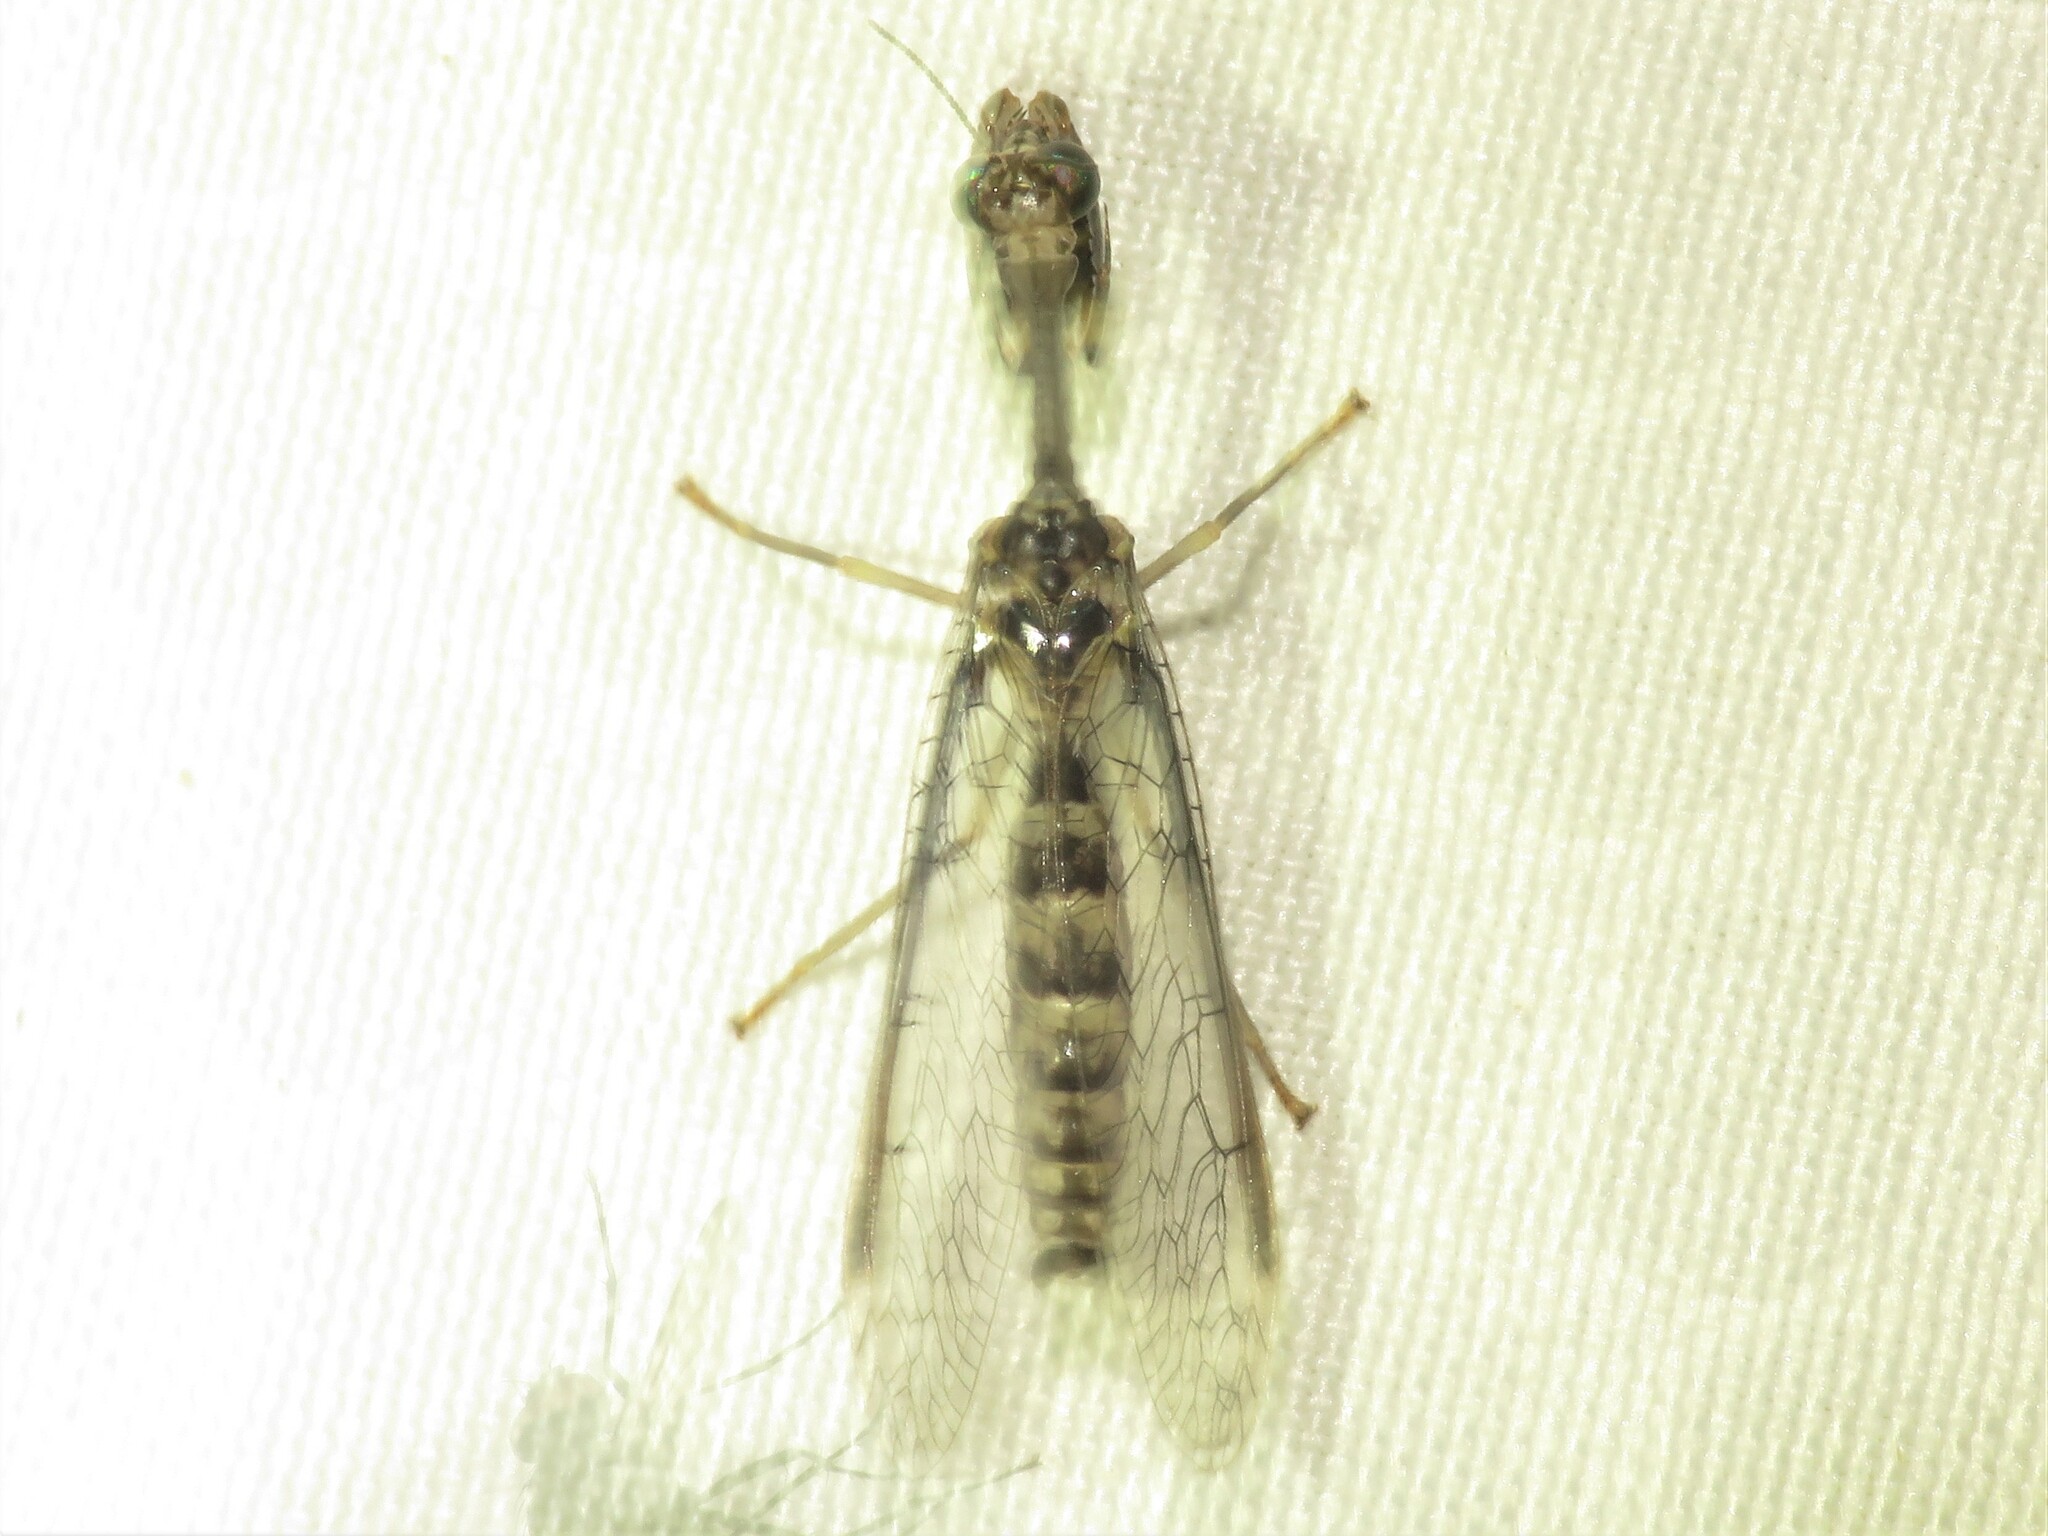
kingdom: Animalia
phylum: Arthropoda
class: Insecta
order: Neuroptera
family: Mantispidae
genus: Dicromantispa
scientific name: Dicromantispa sayi
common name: Say's mantidfly
